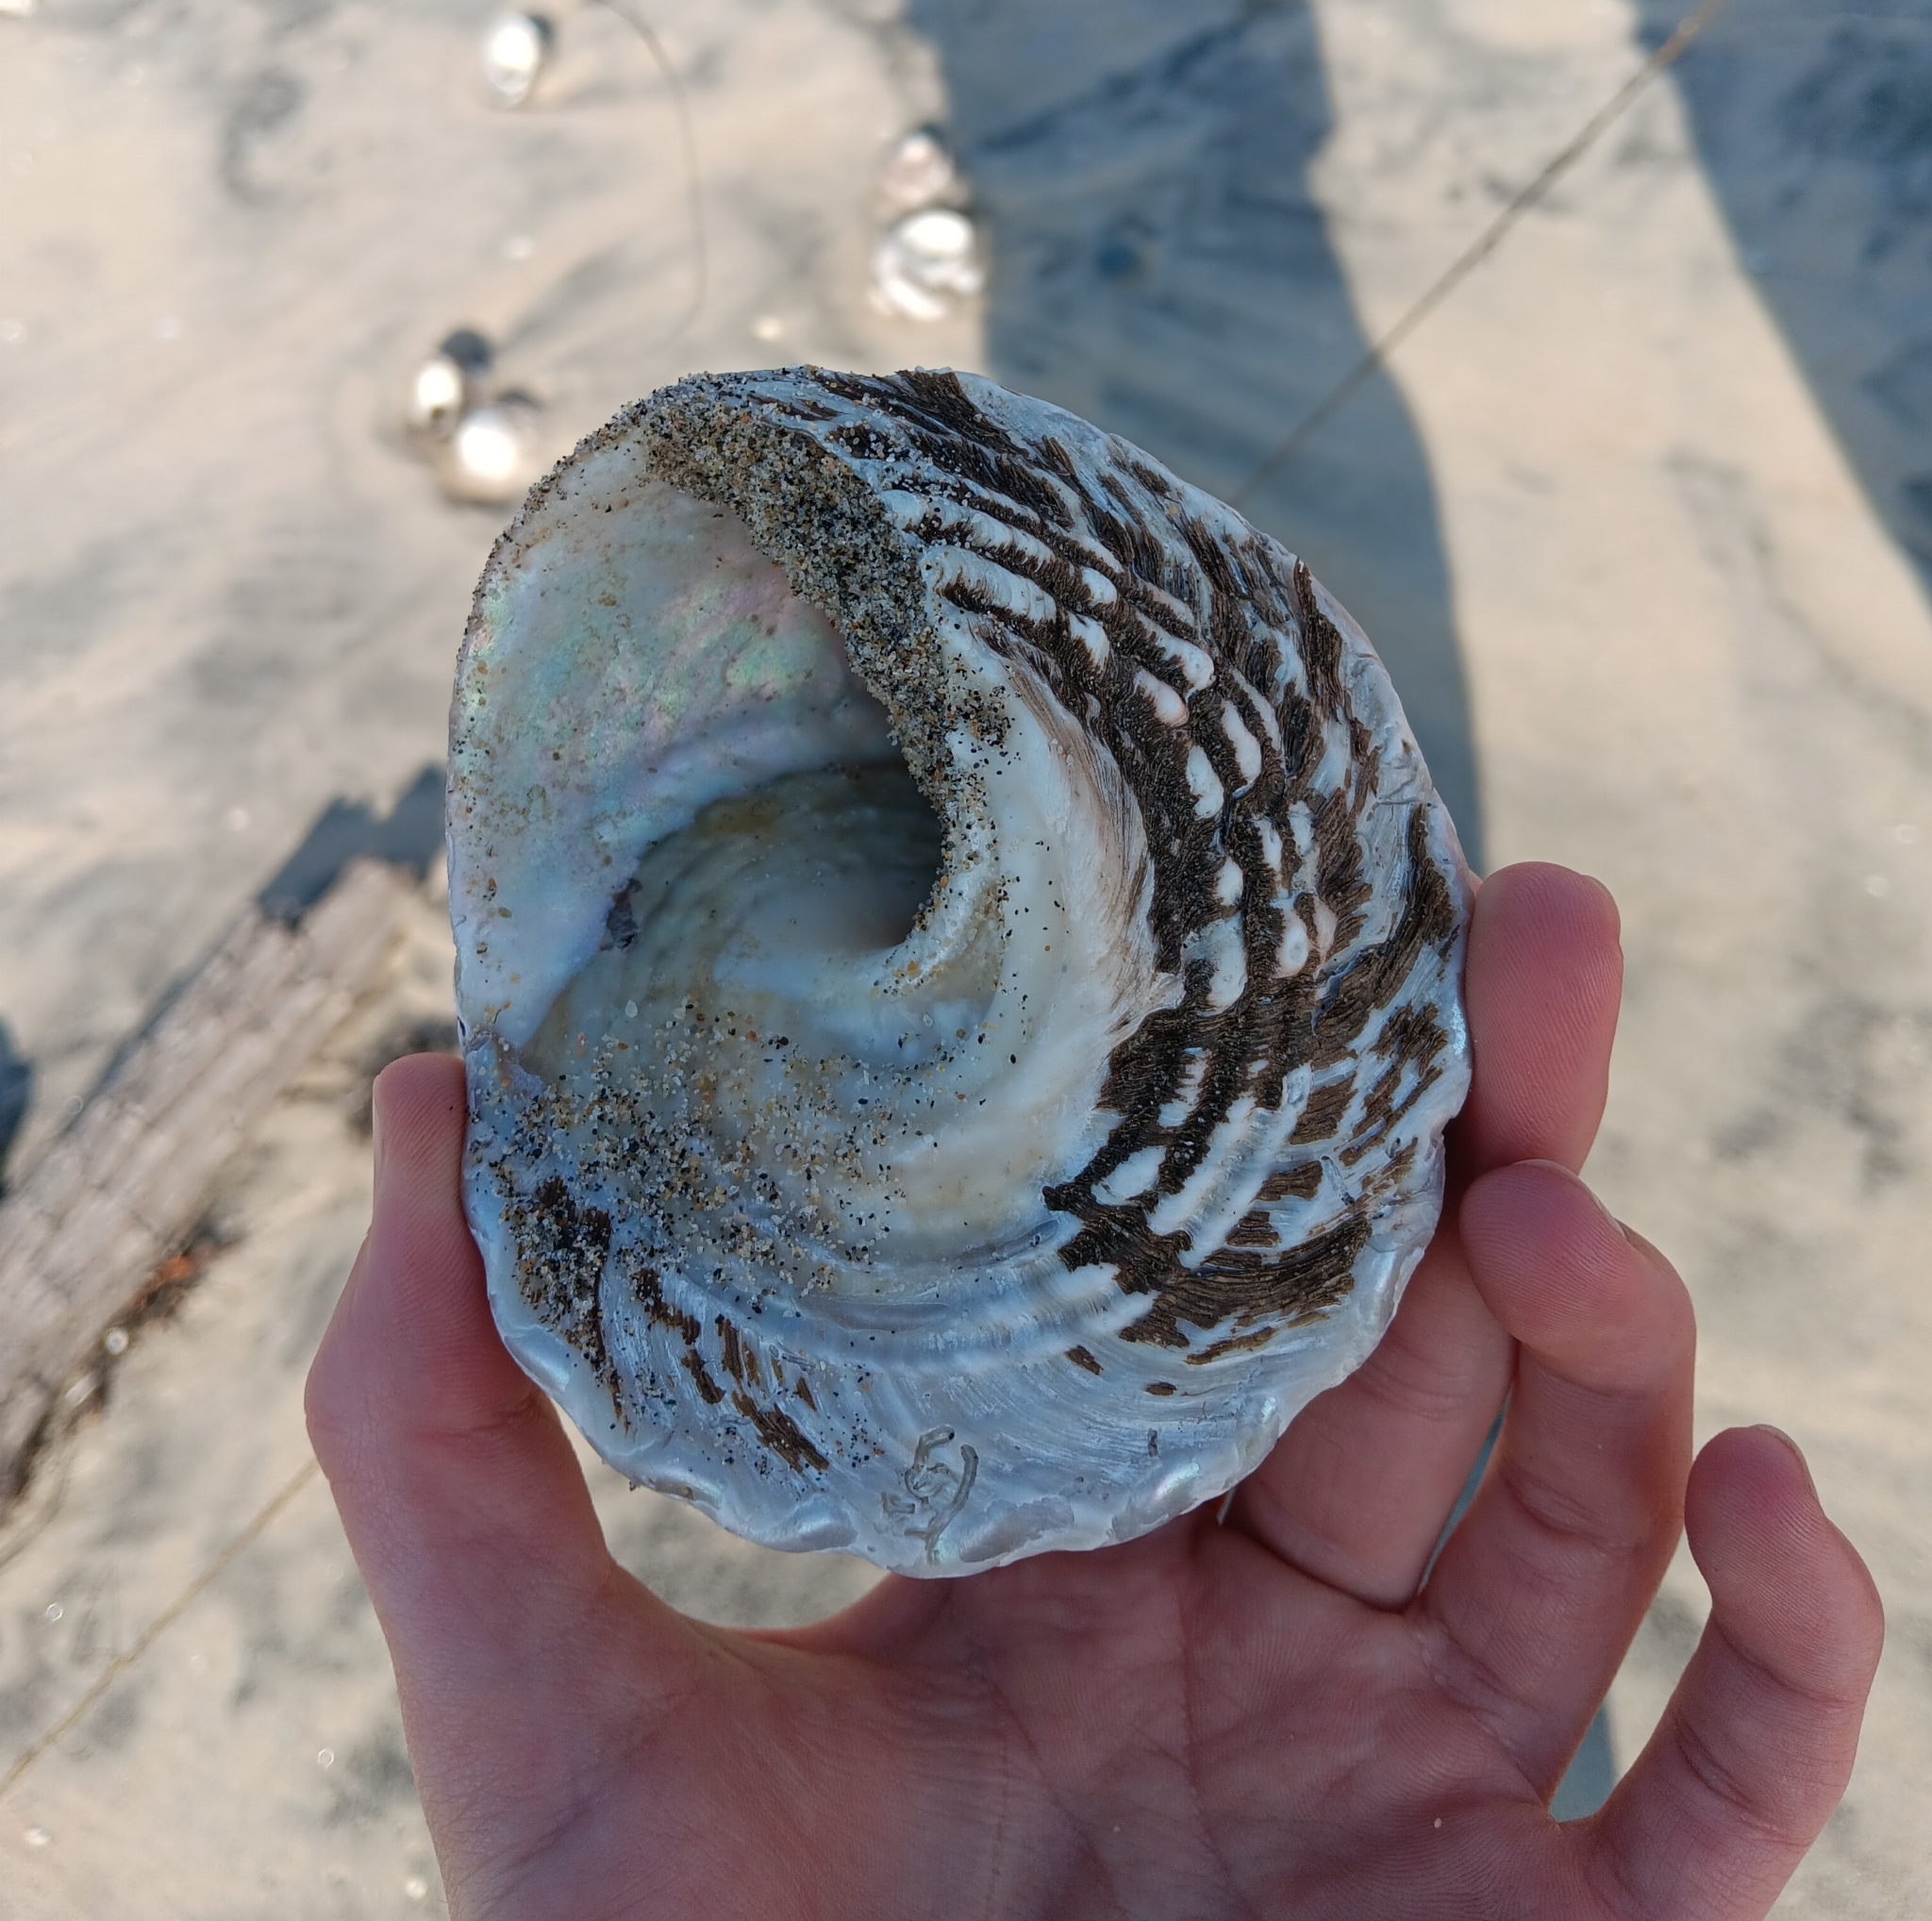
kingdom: Animalia
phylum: Mollusca
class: Gastropoda
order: Trochida
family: Turbinidae
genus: Megastraea
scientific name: Megastraea undosa
